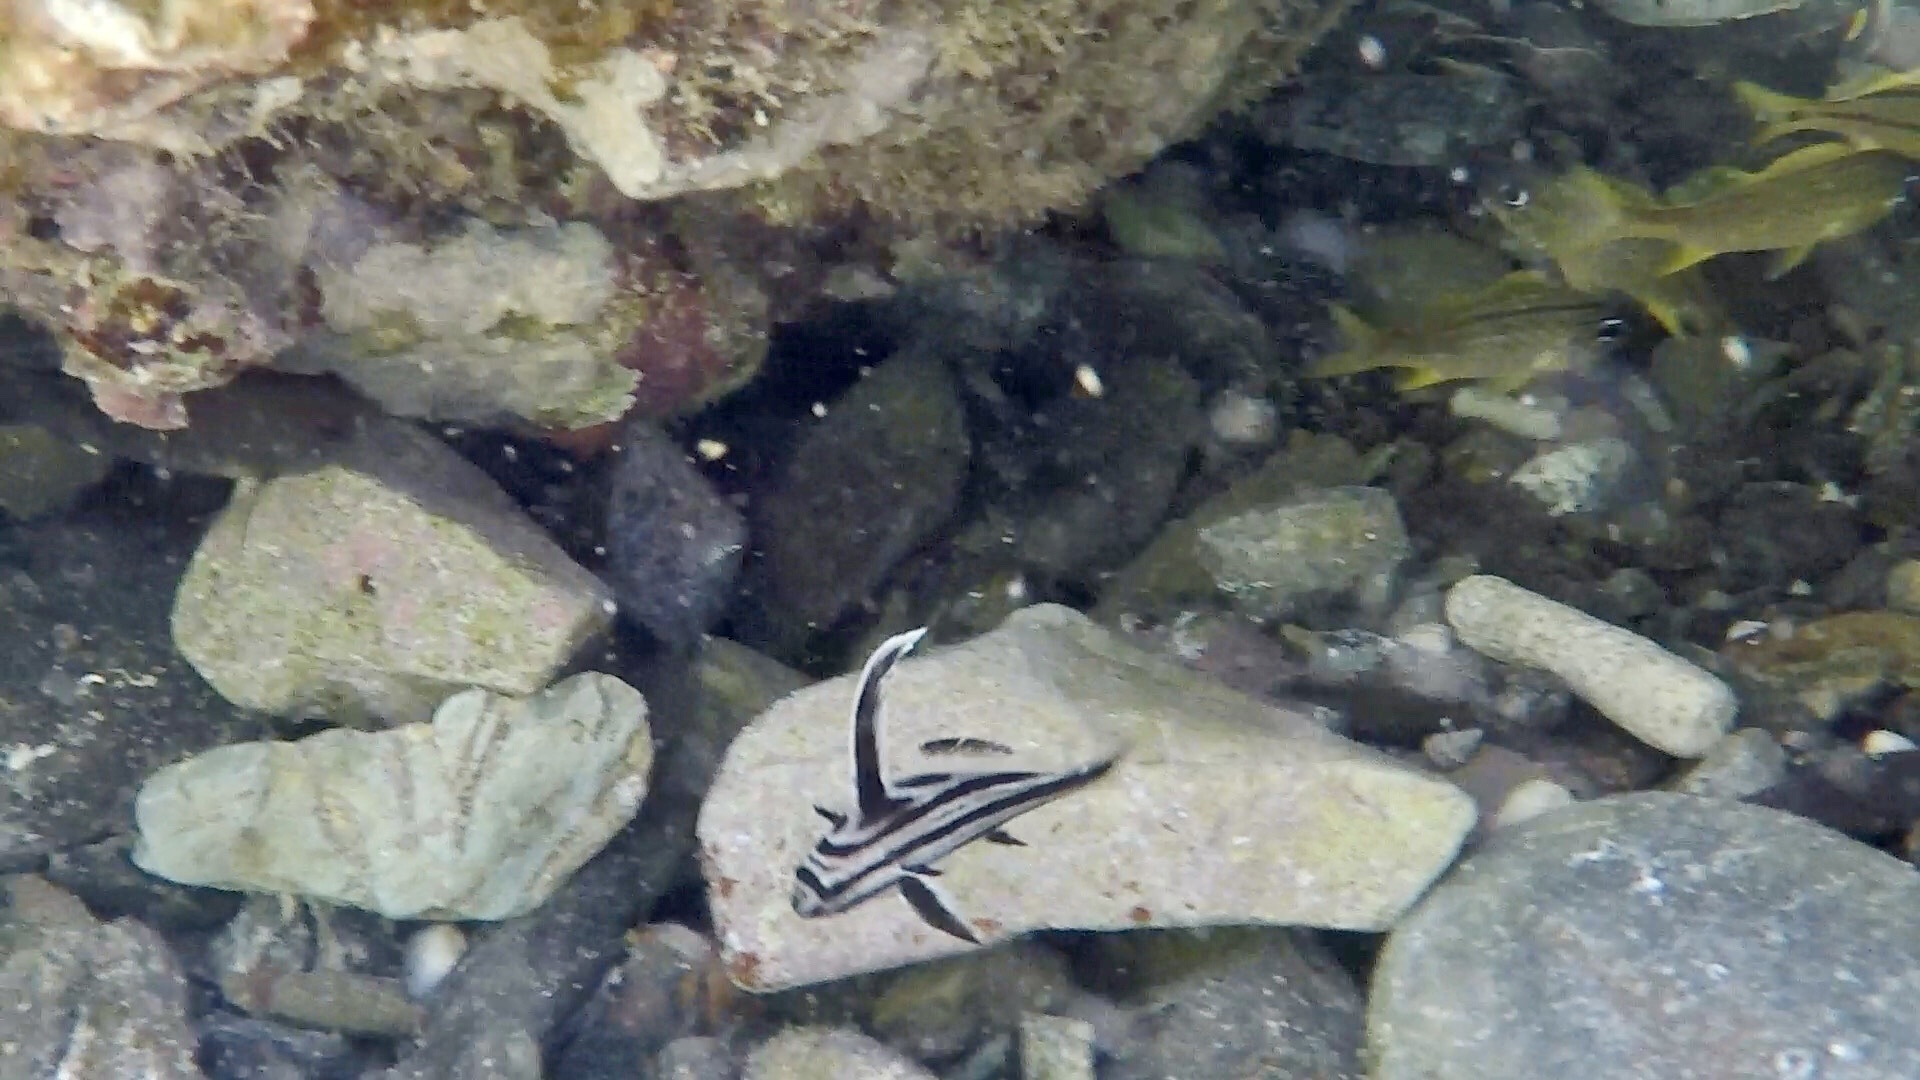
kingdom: Animalia
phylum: Chordata
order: Perciformes
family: Sciaenidae
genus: Pareques
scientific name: Pareques acuminatus
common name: High-hat
